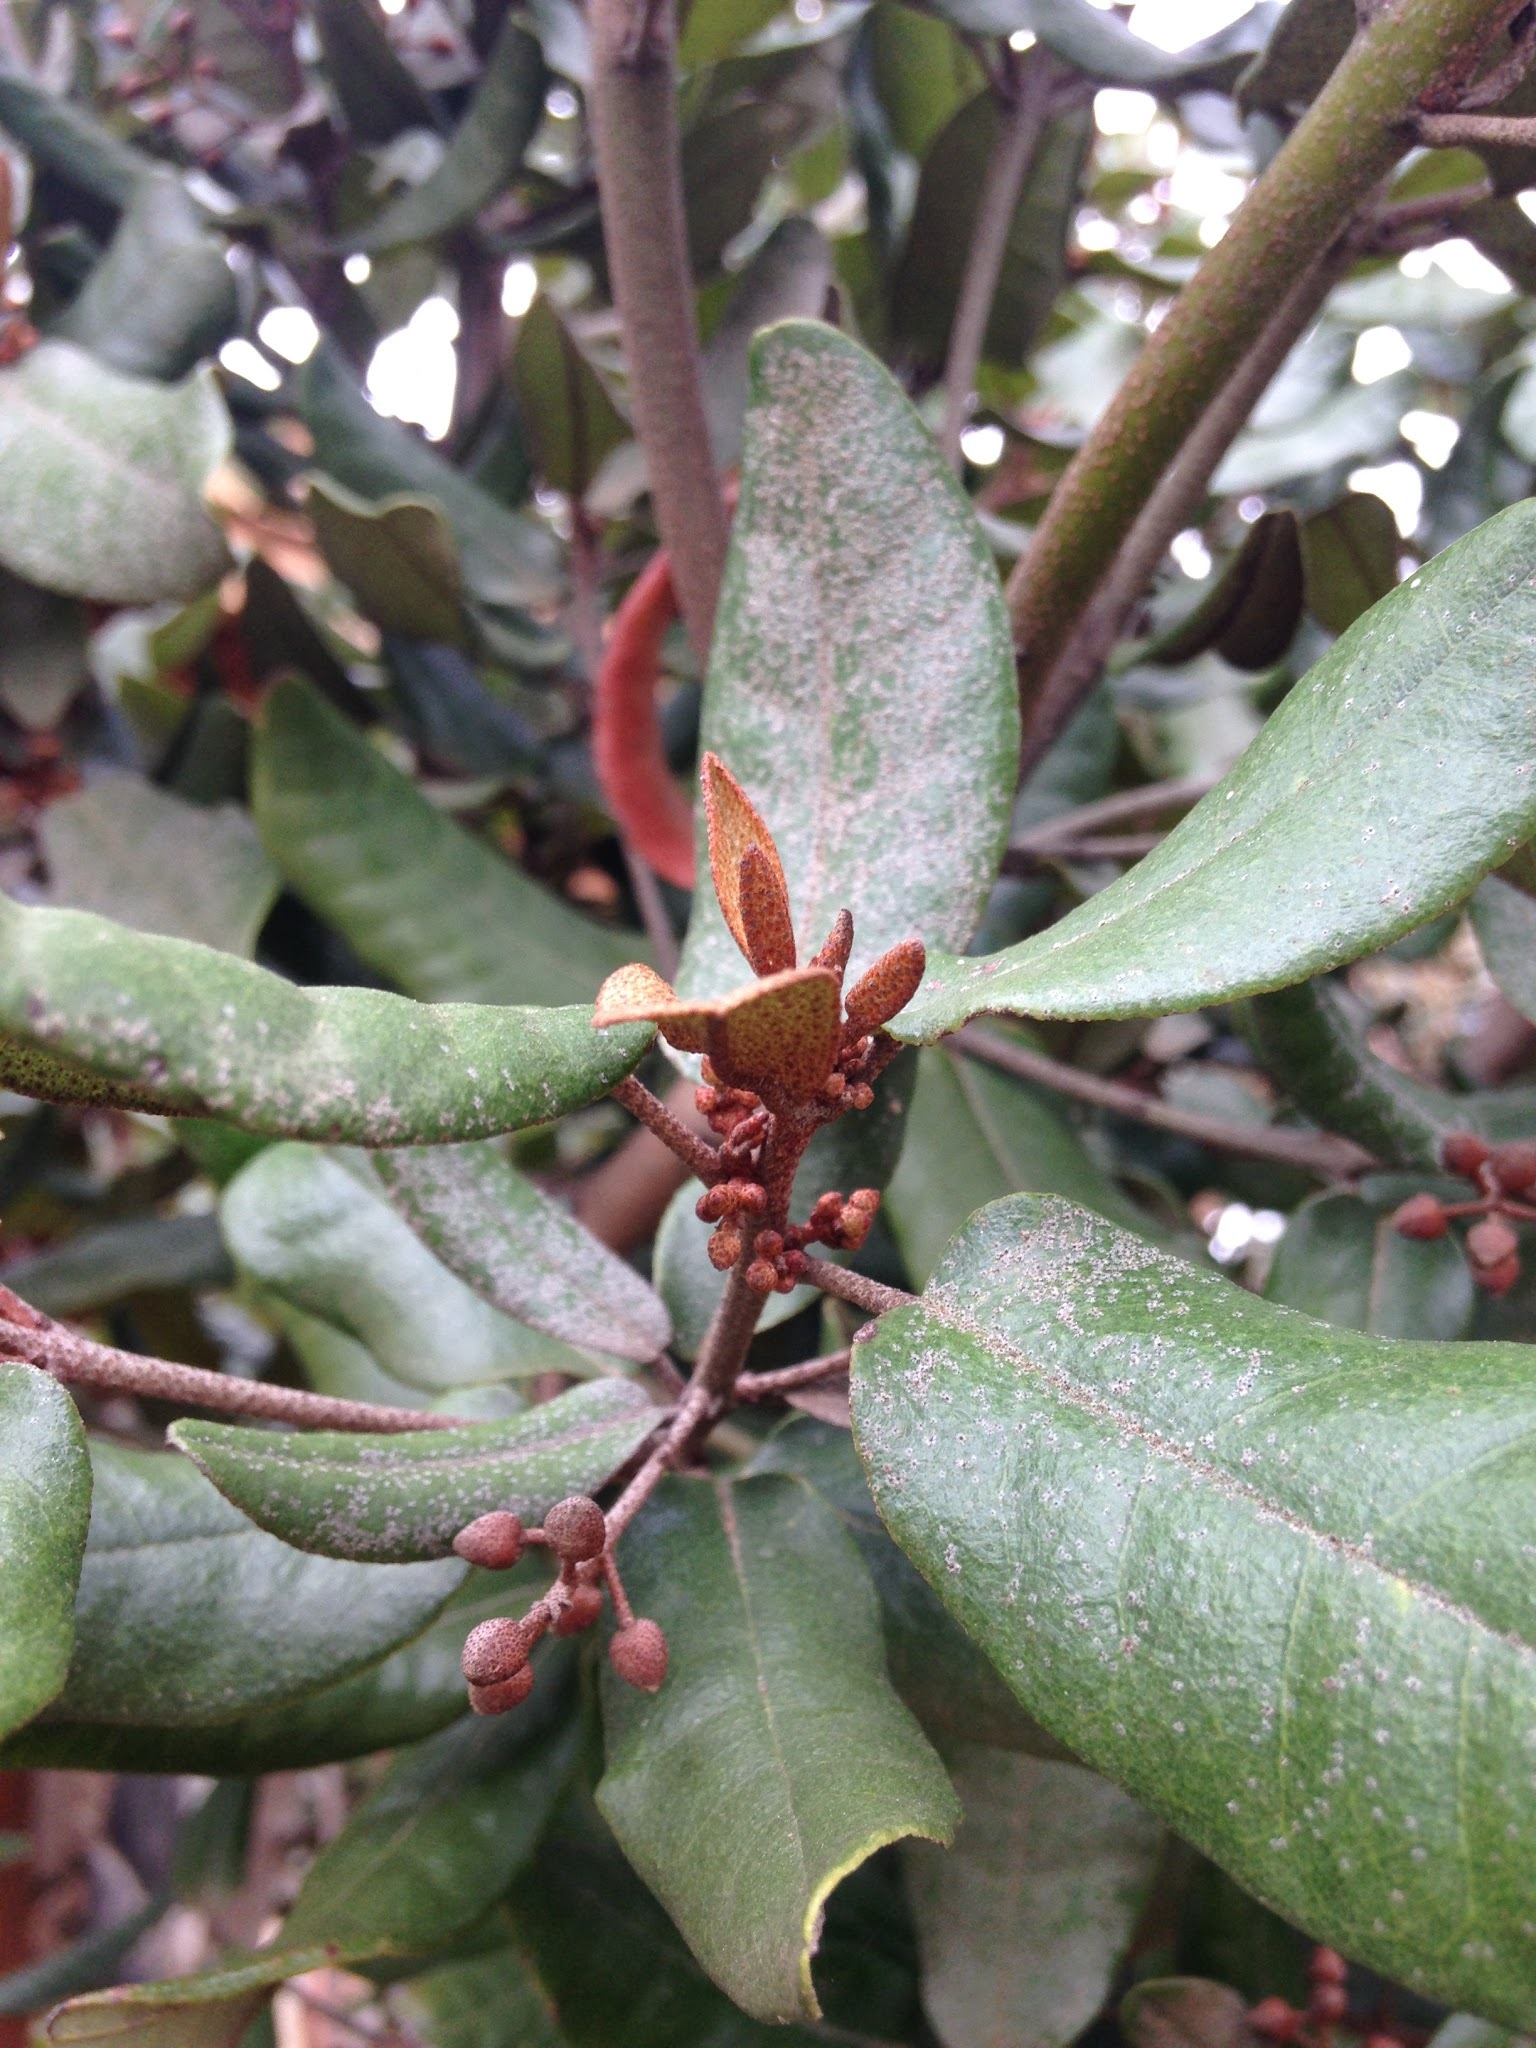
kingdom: Plantae
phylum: Tracheophyta
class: Magnoliopsida
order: Berberidopsidales
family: Aextoxicaceae
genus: Aextoxicon
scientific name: Aextoxicon punctatum
